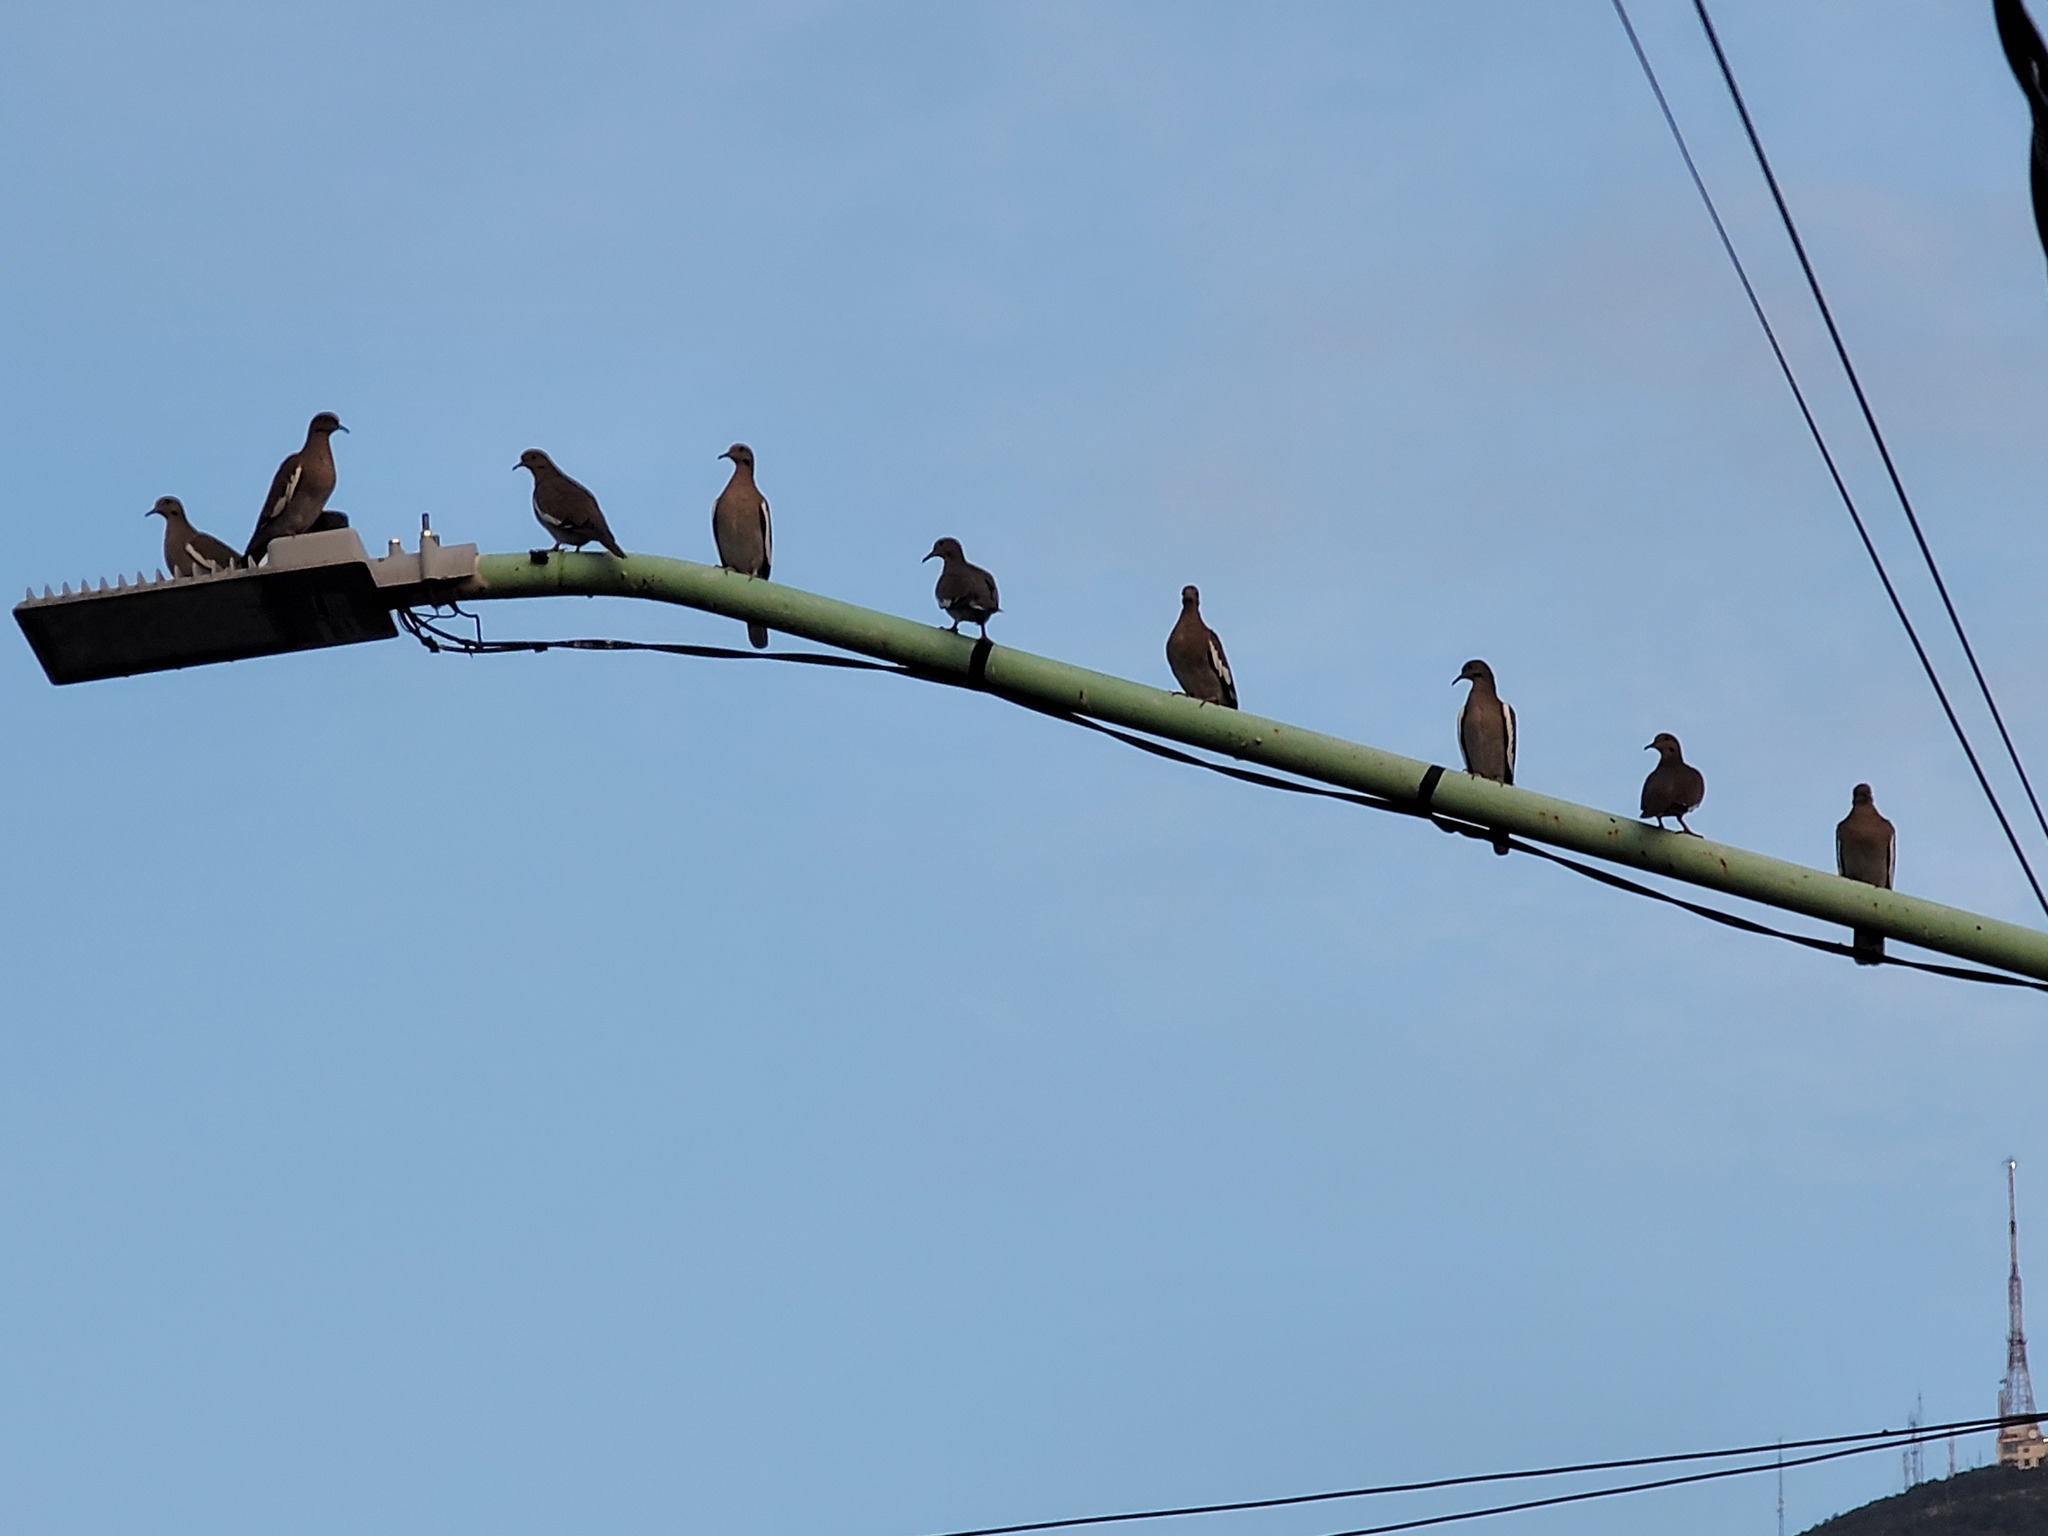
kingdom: Animalia
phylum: Chordata
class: Aves
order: Columbiformes
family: Columbidae
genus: Zenaida
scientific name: Zenaida asiatica
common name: White-winged dove
